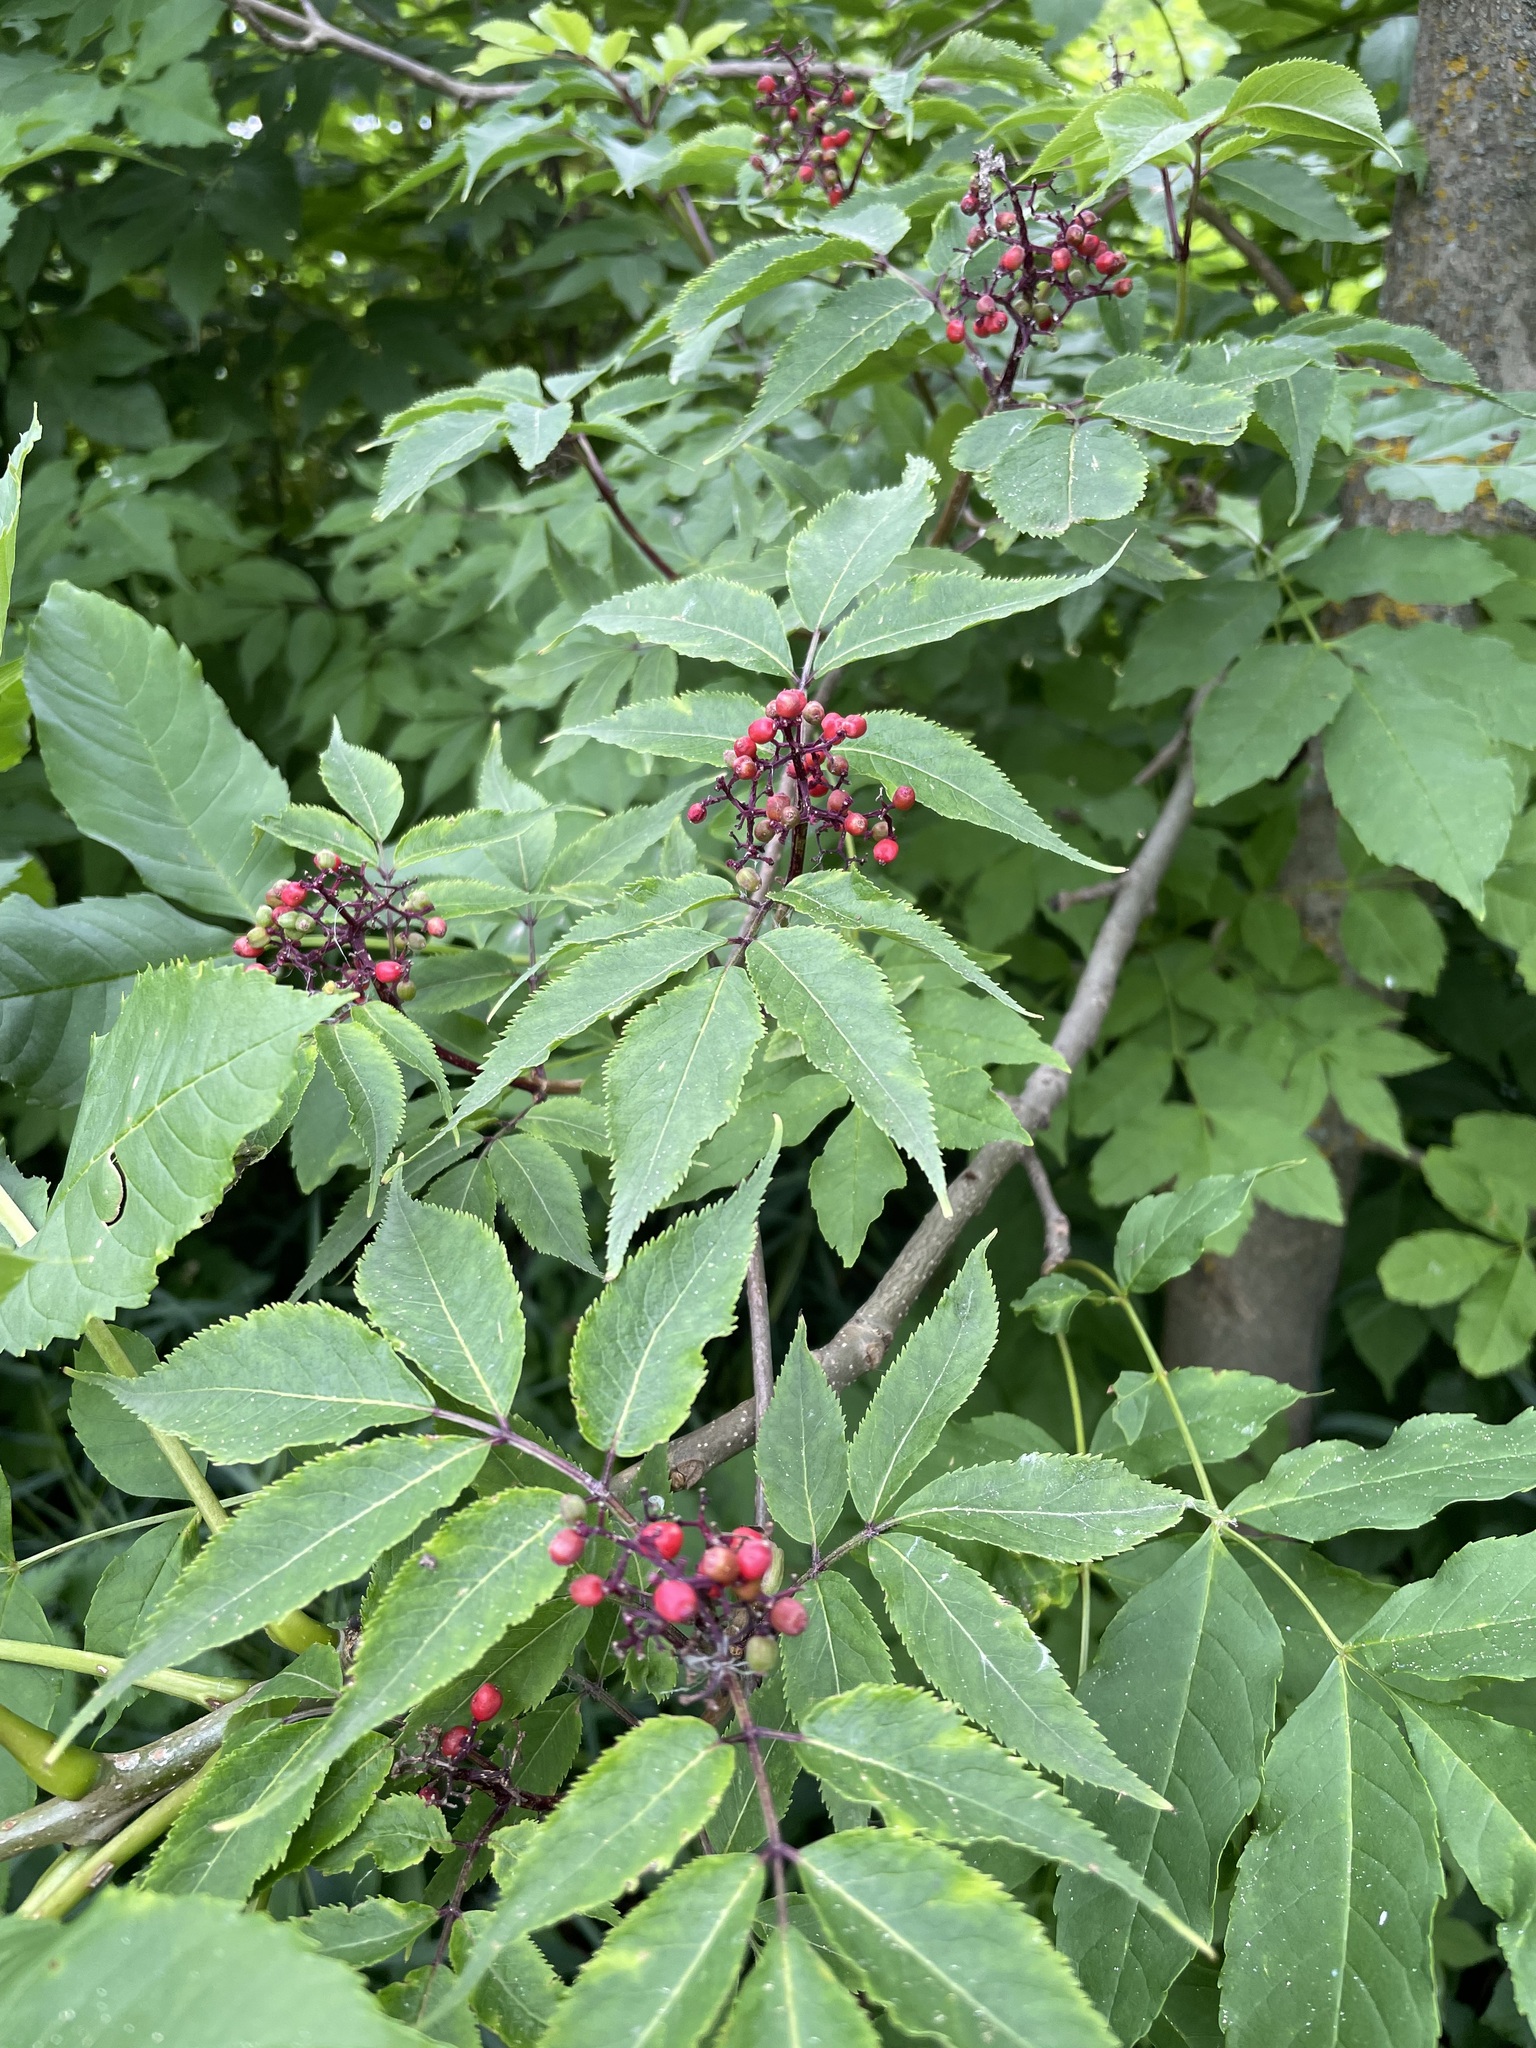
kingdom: Plantae
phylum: Tracheophyta
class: Magnoliopsida
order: Dipsacales
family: Viburnaceae
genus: Sambucus
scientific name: Sambucus racemosa
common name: Red-berried elder
